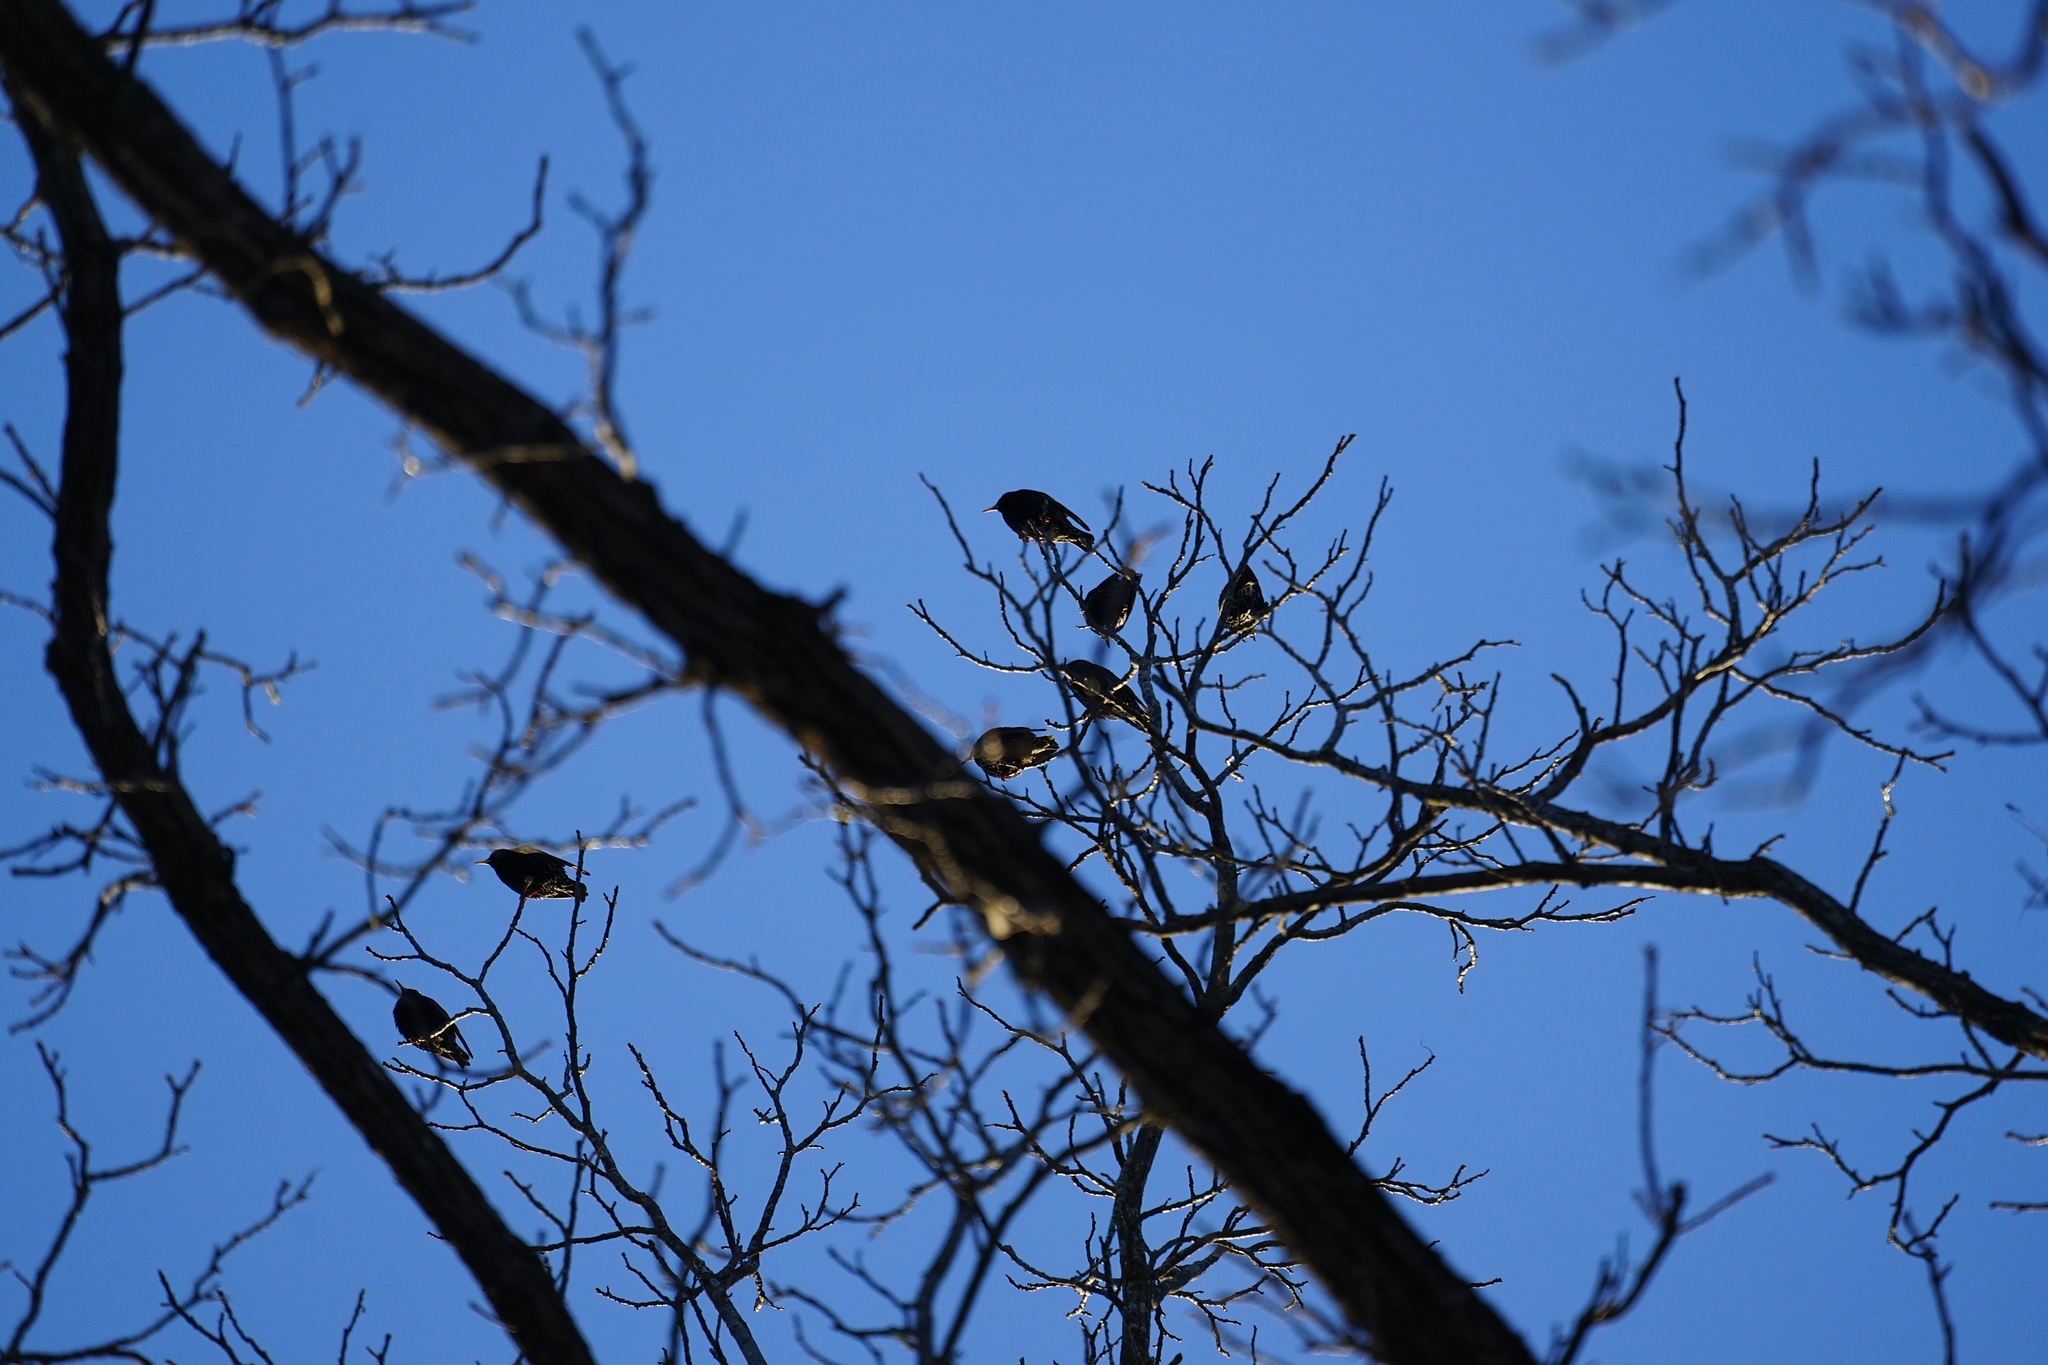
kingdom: Animalia
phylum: Chordata
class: Aves
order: Passeriformes
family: Sturnidae
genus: Sturnus
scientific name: Sturnus vulgaris
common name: Common starling
